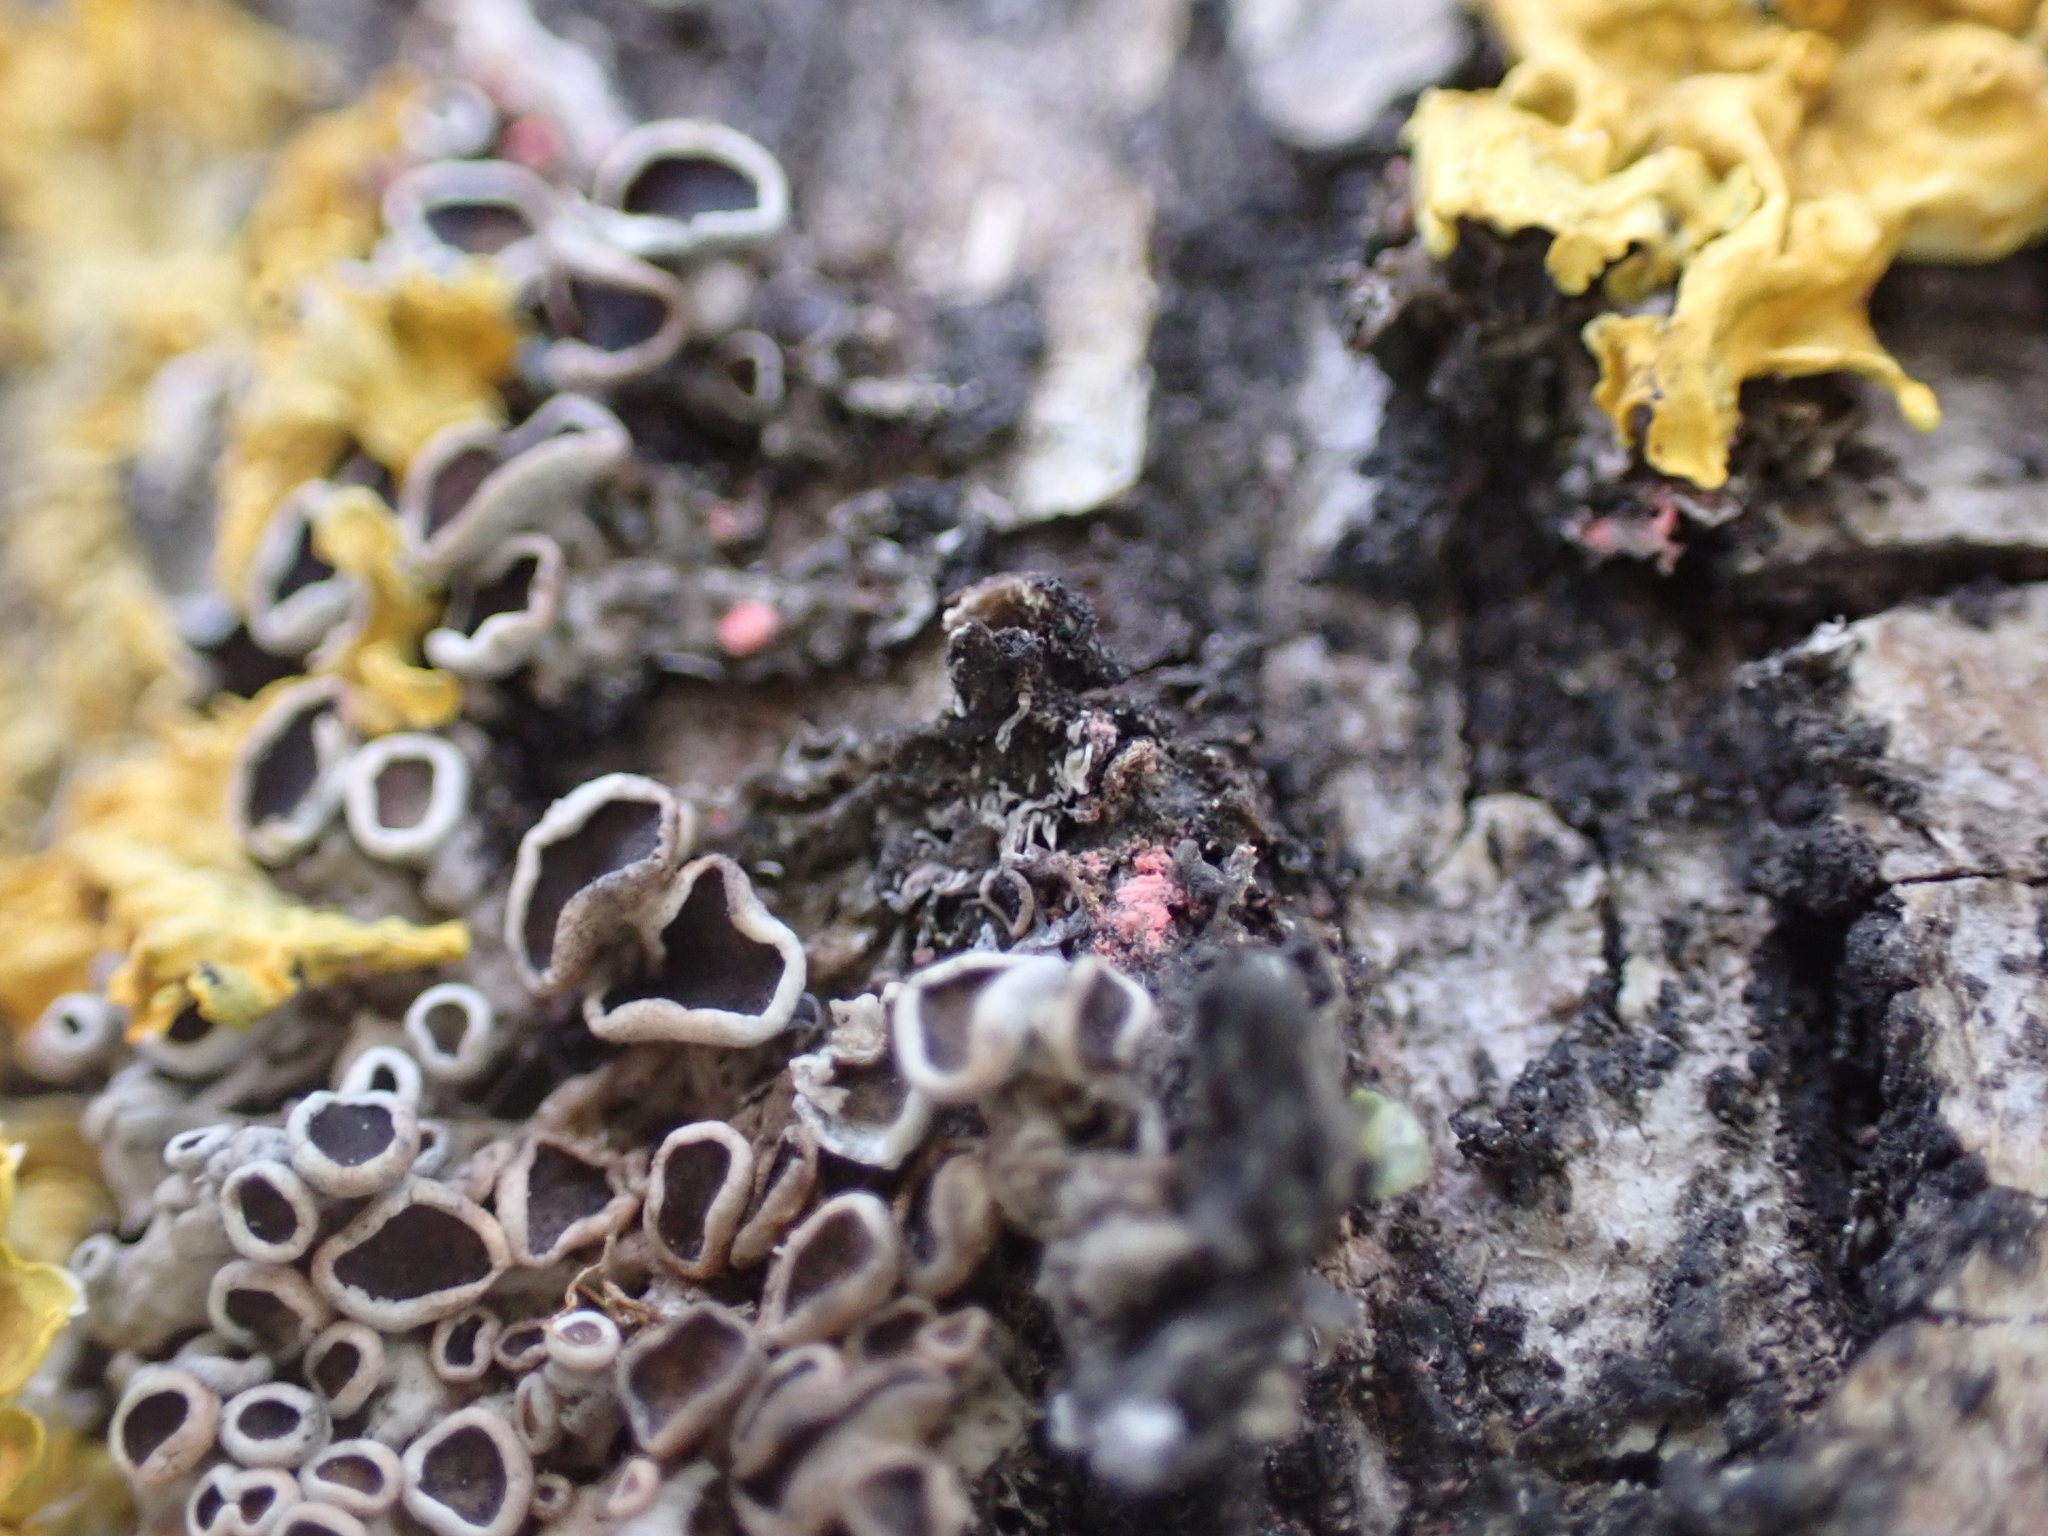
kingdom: Fungi
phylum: Ascomycota
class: Sordariomycetes
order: Hypocreales
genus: Illosporiopsis
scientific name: Illosporiopsis christiansenii
